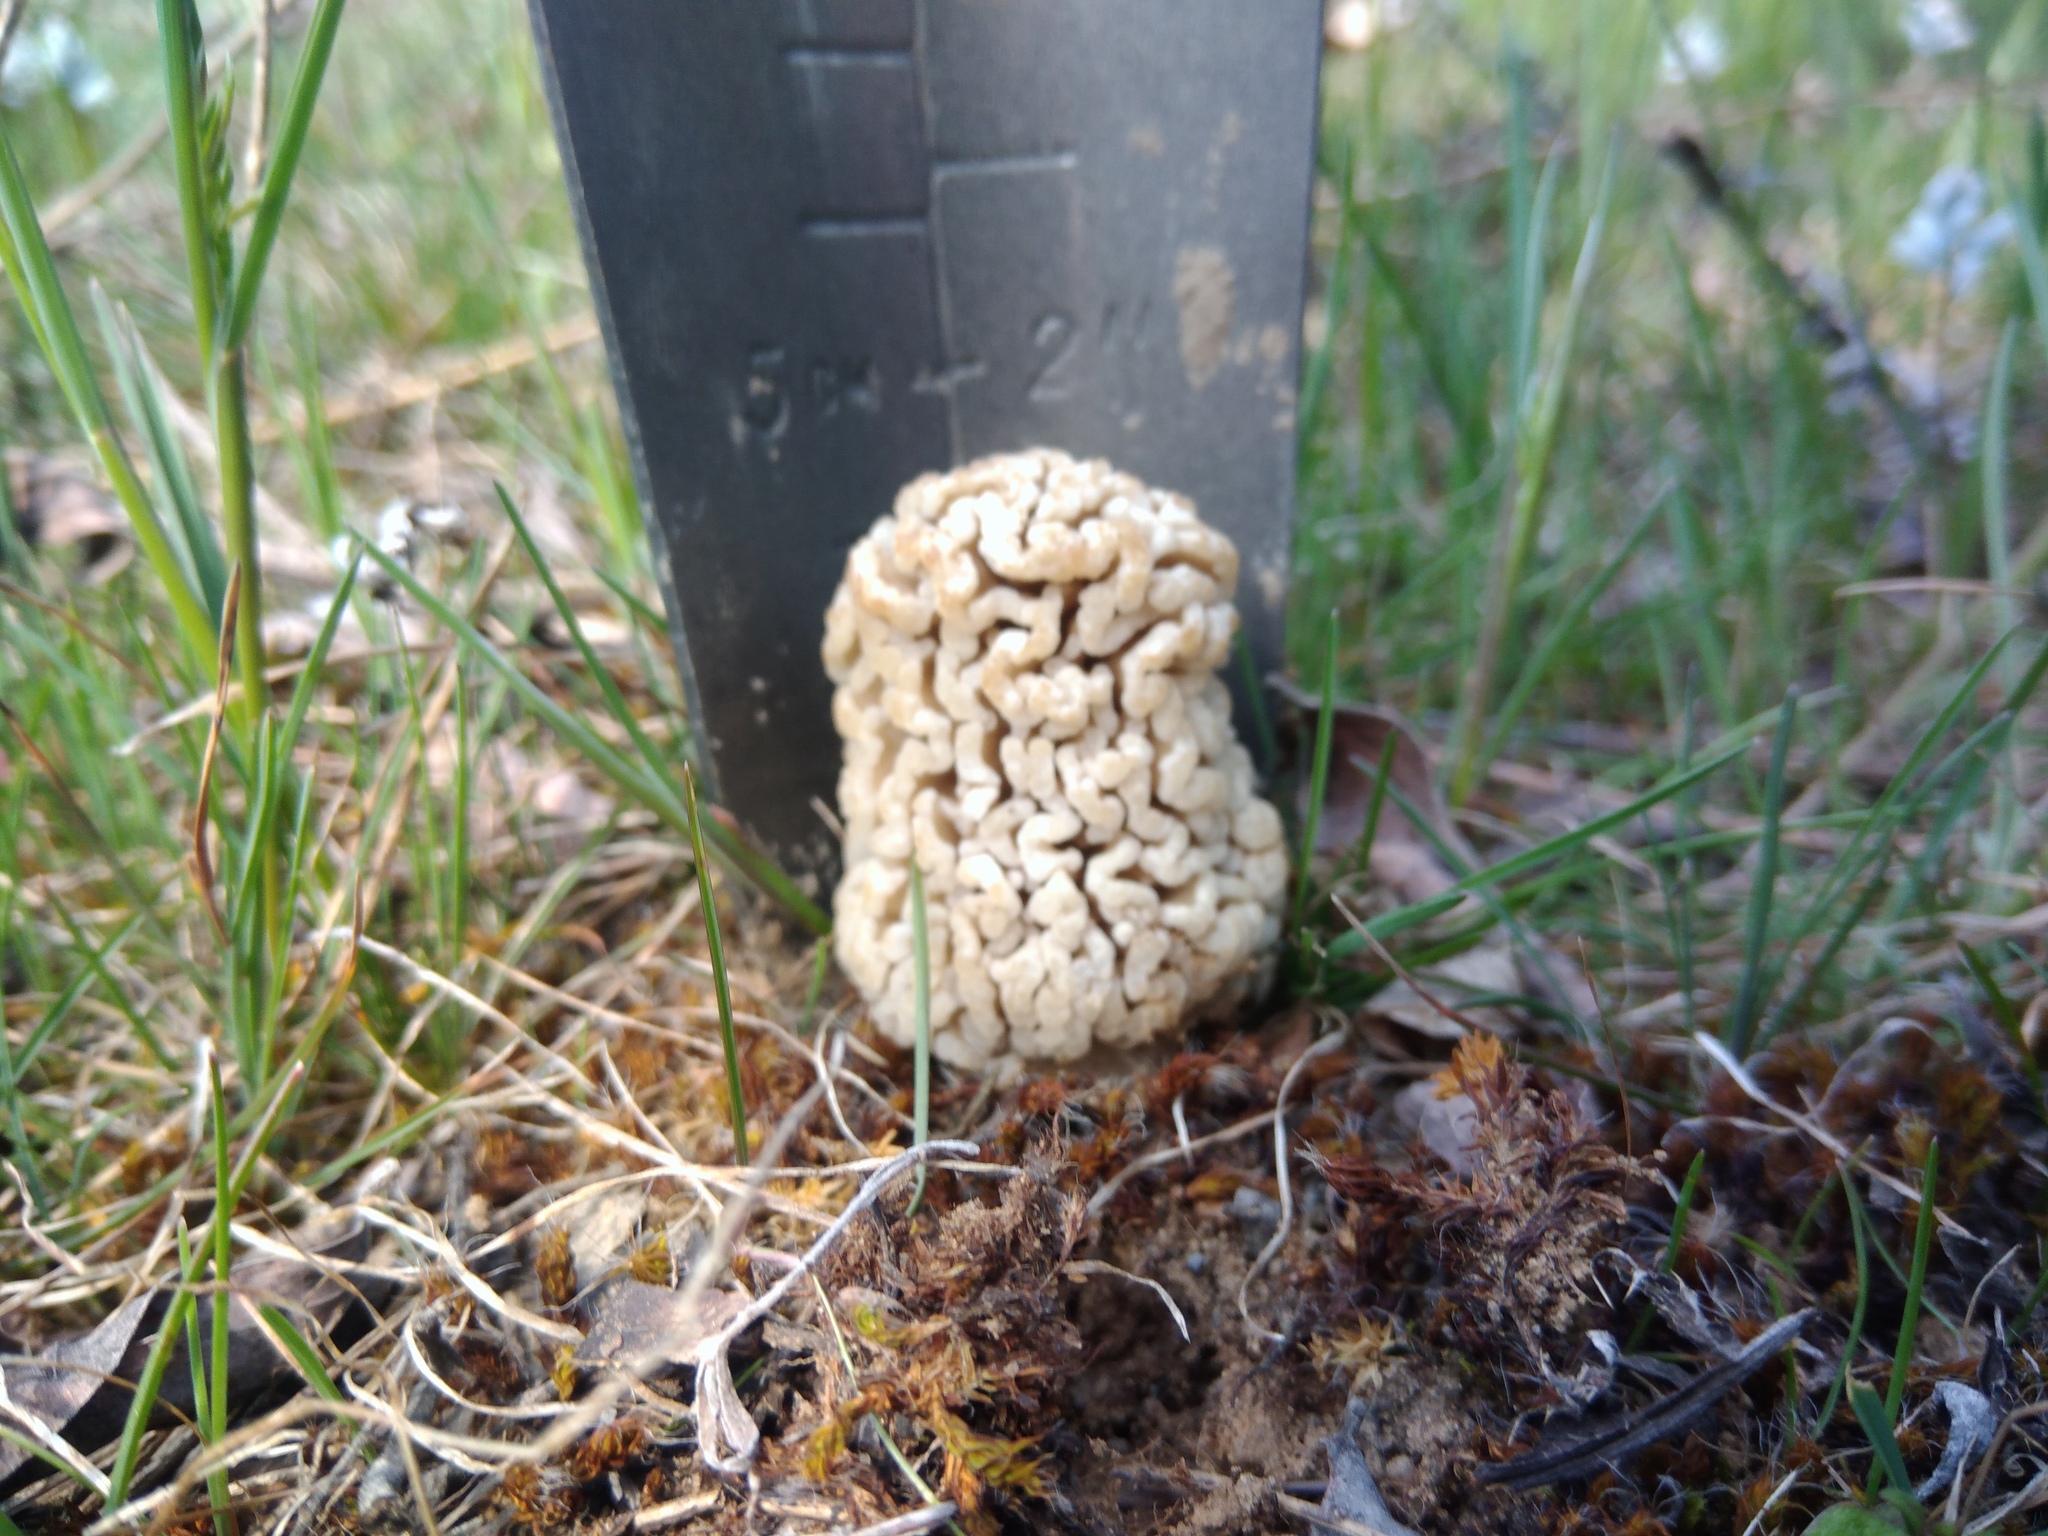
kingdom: Fungi
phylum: Ascomycota
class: Pezizomycetes
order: Pezizales
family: Morchellaceae
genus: Morchella
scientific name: Morchella steppicola
